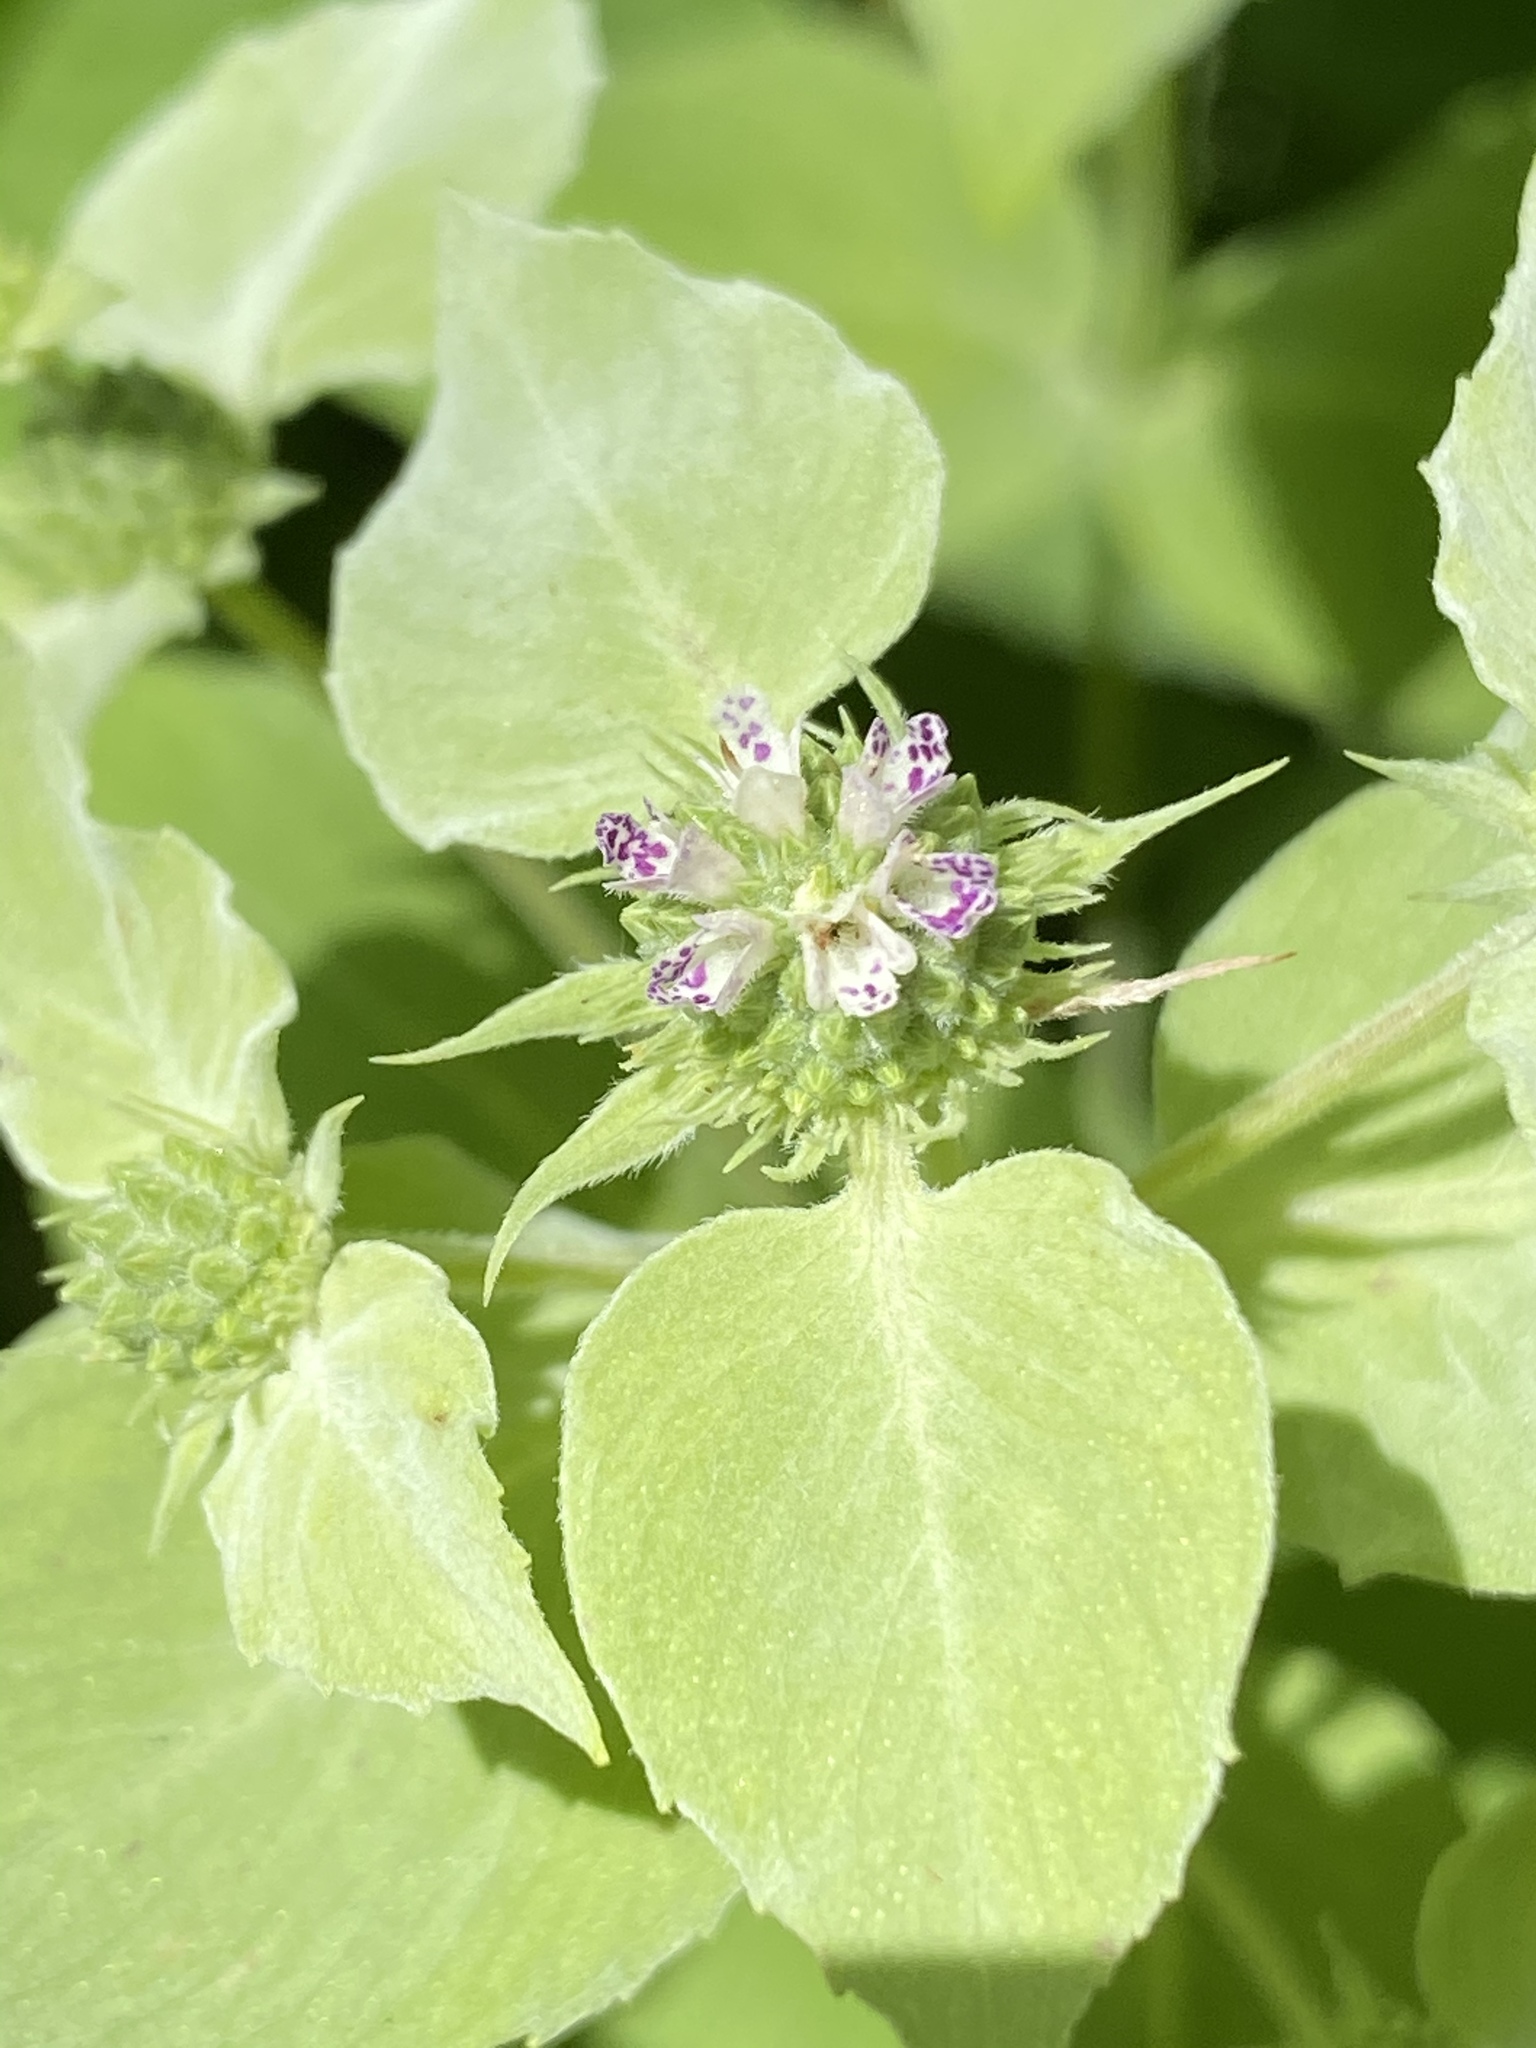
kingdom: Plantae
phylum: Tracheophyta
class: Magnoliopsida
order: Lamiales
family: Lamiaceae
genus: Pycnanthemum
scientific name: Pycnanthemum muticum
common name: Blunt mountain-mint
